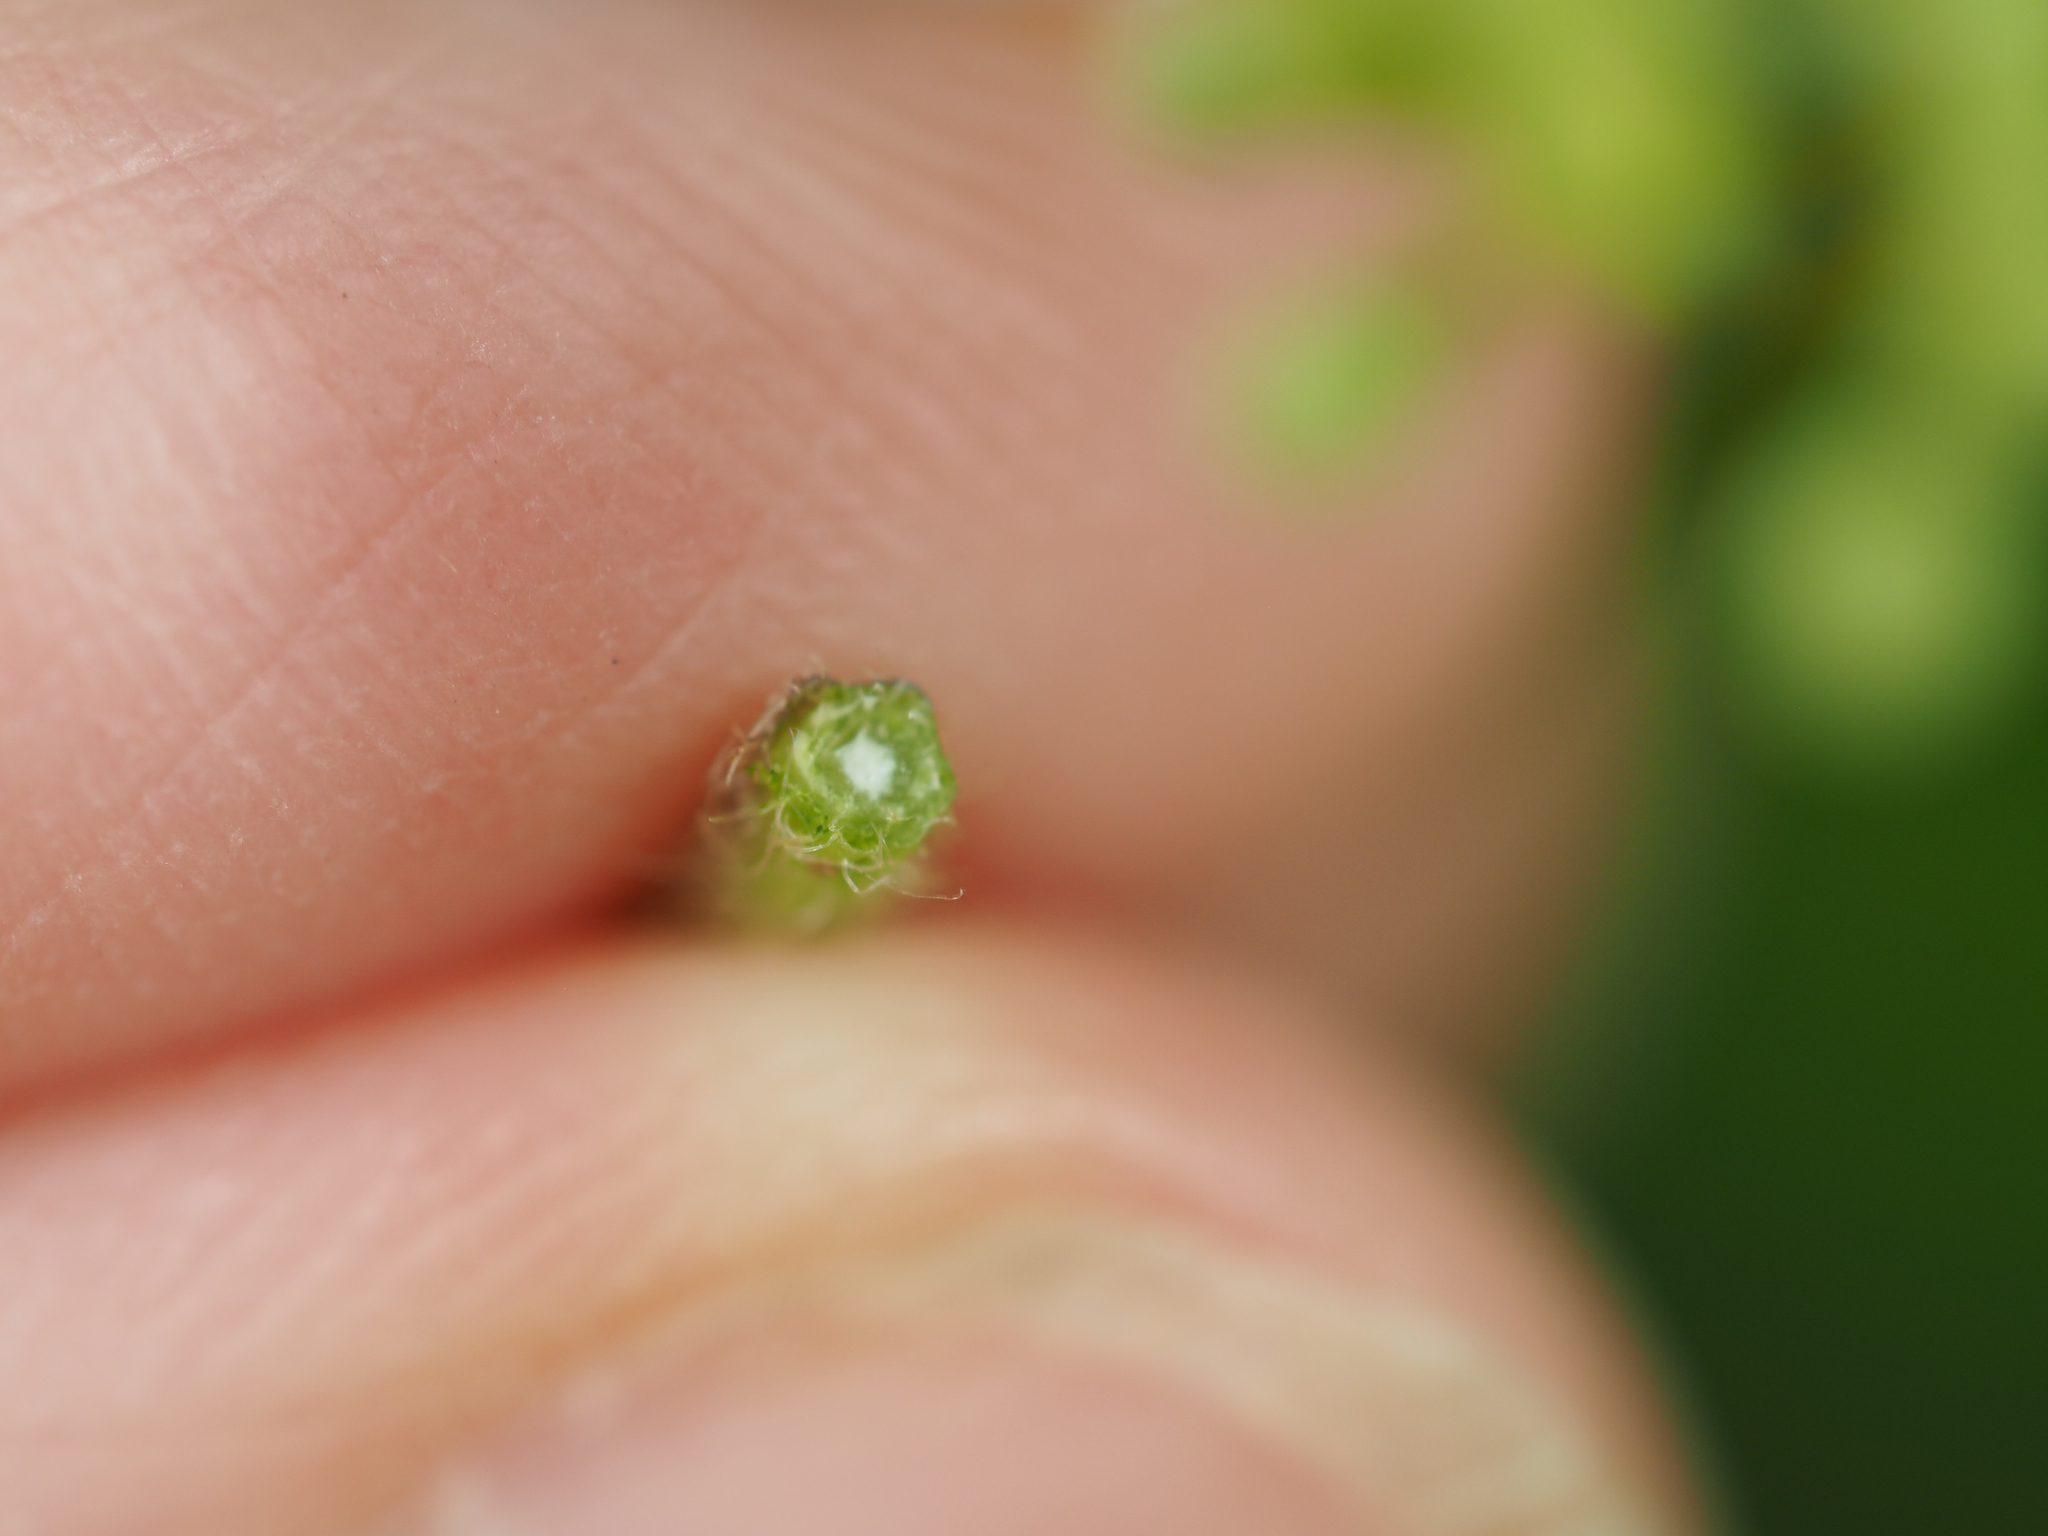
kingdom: Plantae
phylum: Tracheophyta
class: Magnoliopsida
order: Vitales
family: Vitaceae
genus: Ampelopsis
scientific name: Ampelopsis glandulosa
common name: Amur peppervine
